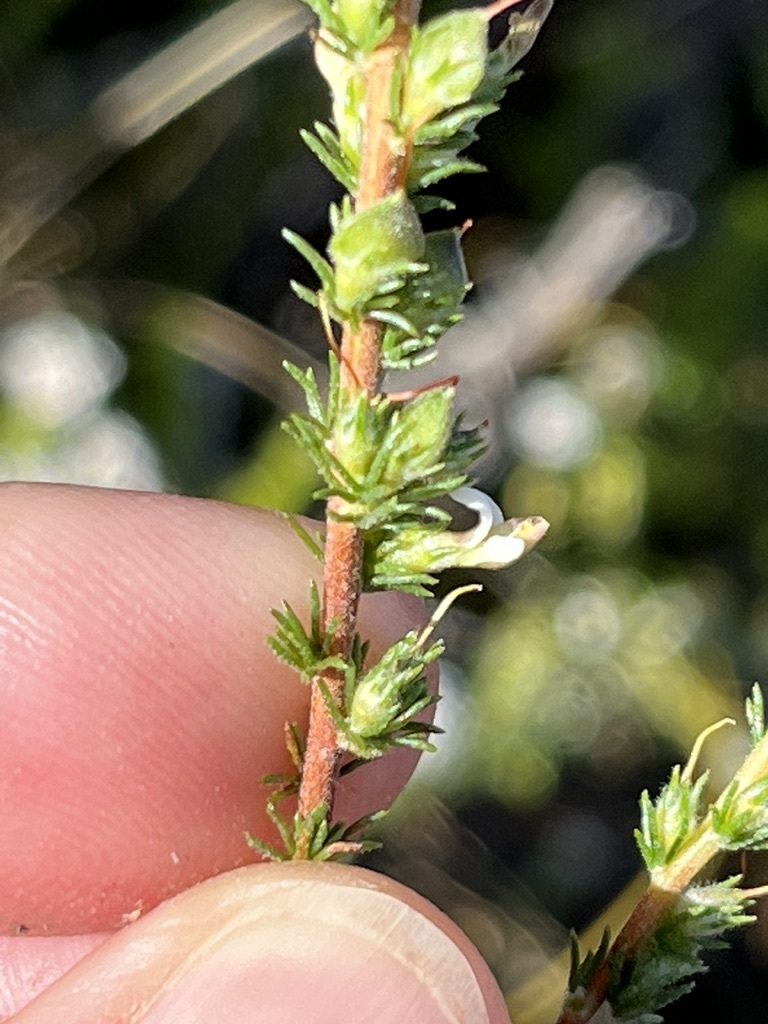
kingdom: Plantae
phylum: Tracheophyta
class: Magnoliopsida
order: Fabales
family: Fabaceae
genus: Aspalathus
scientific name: Aspalathus hispida
